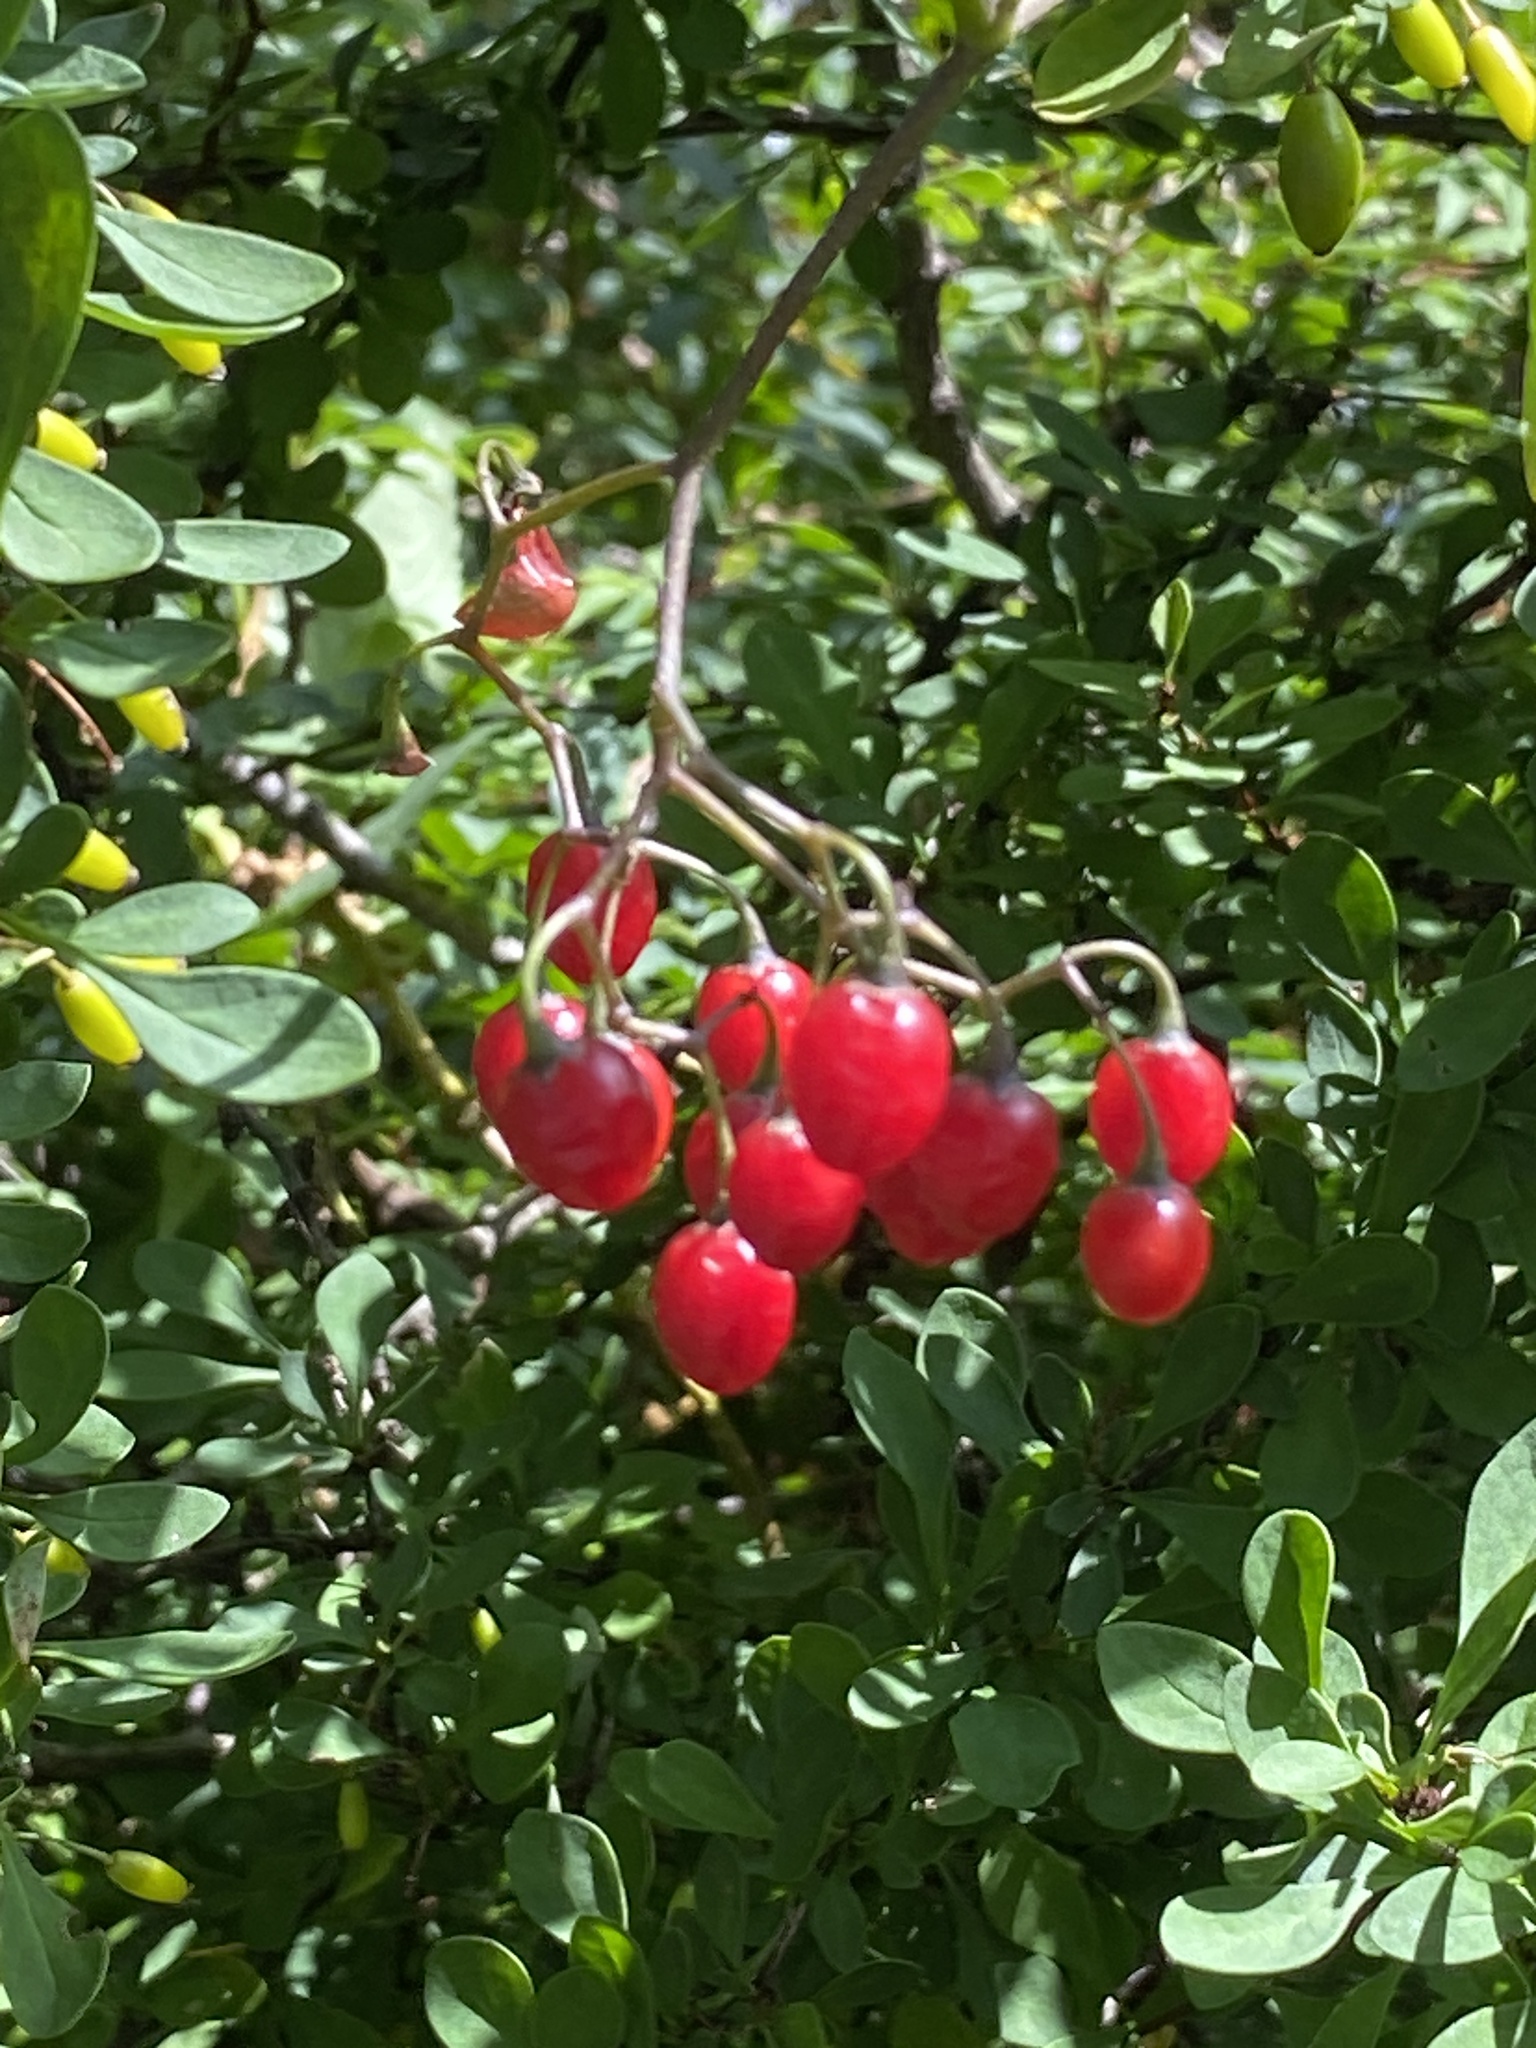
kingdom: Plantae
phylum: Tracheophyta
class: Magnoliopsida
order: Solanales
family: Solanaceae
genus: Solanum
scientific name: Solanum dulcamara
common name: Climbing nightshade
